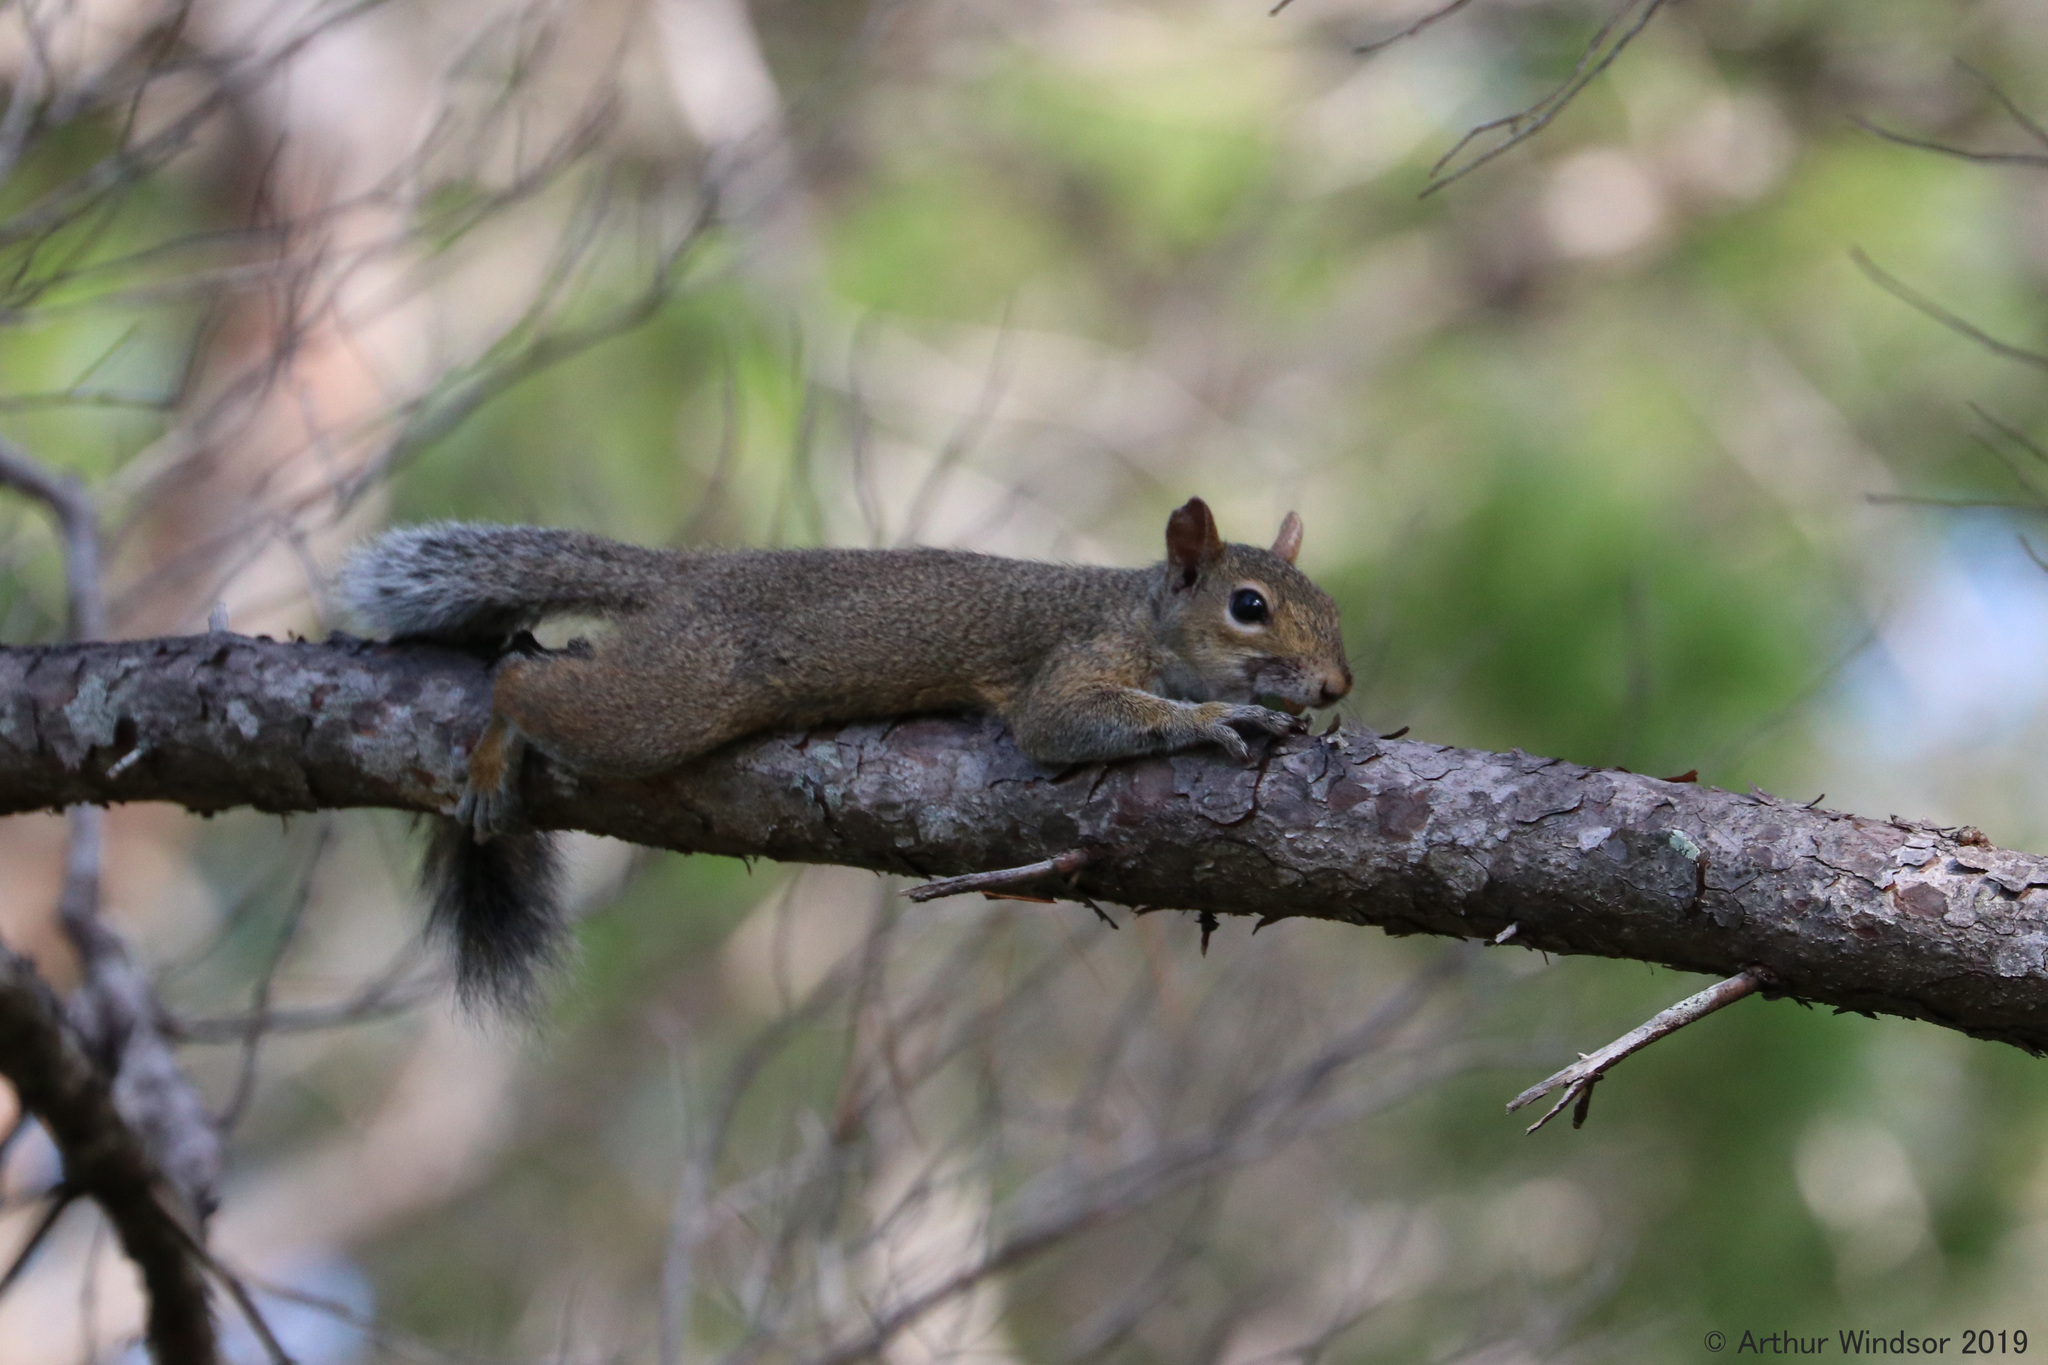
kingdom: Animalia
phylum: Chordata
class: Mammalia
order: Rodentia
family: Sciuridae
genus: Sciurus
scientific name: Sciurus carolinensis
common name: Eastern gray squirrel
